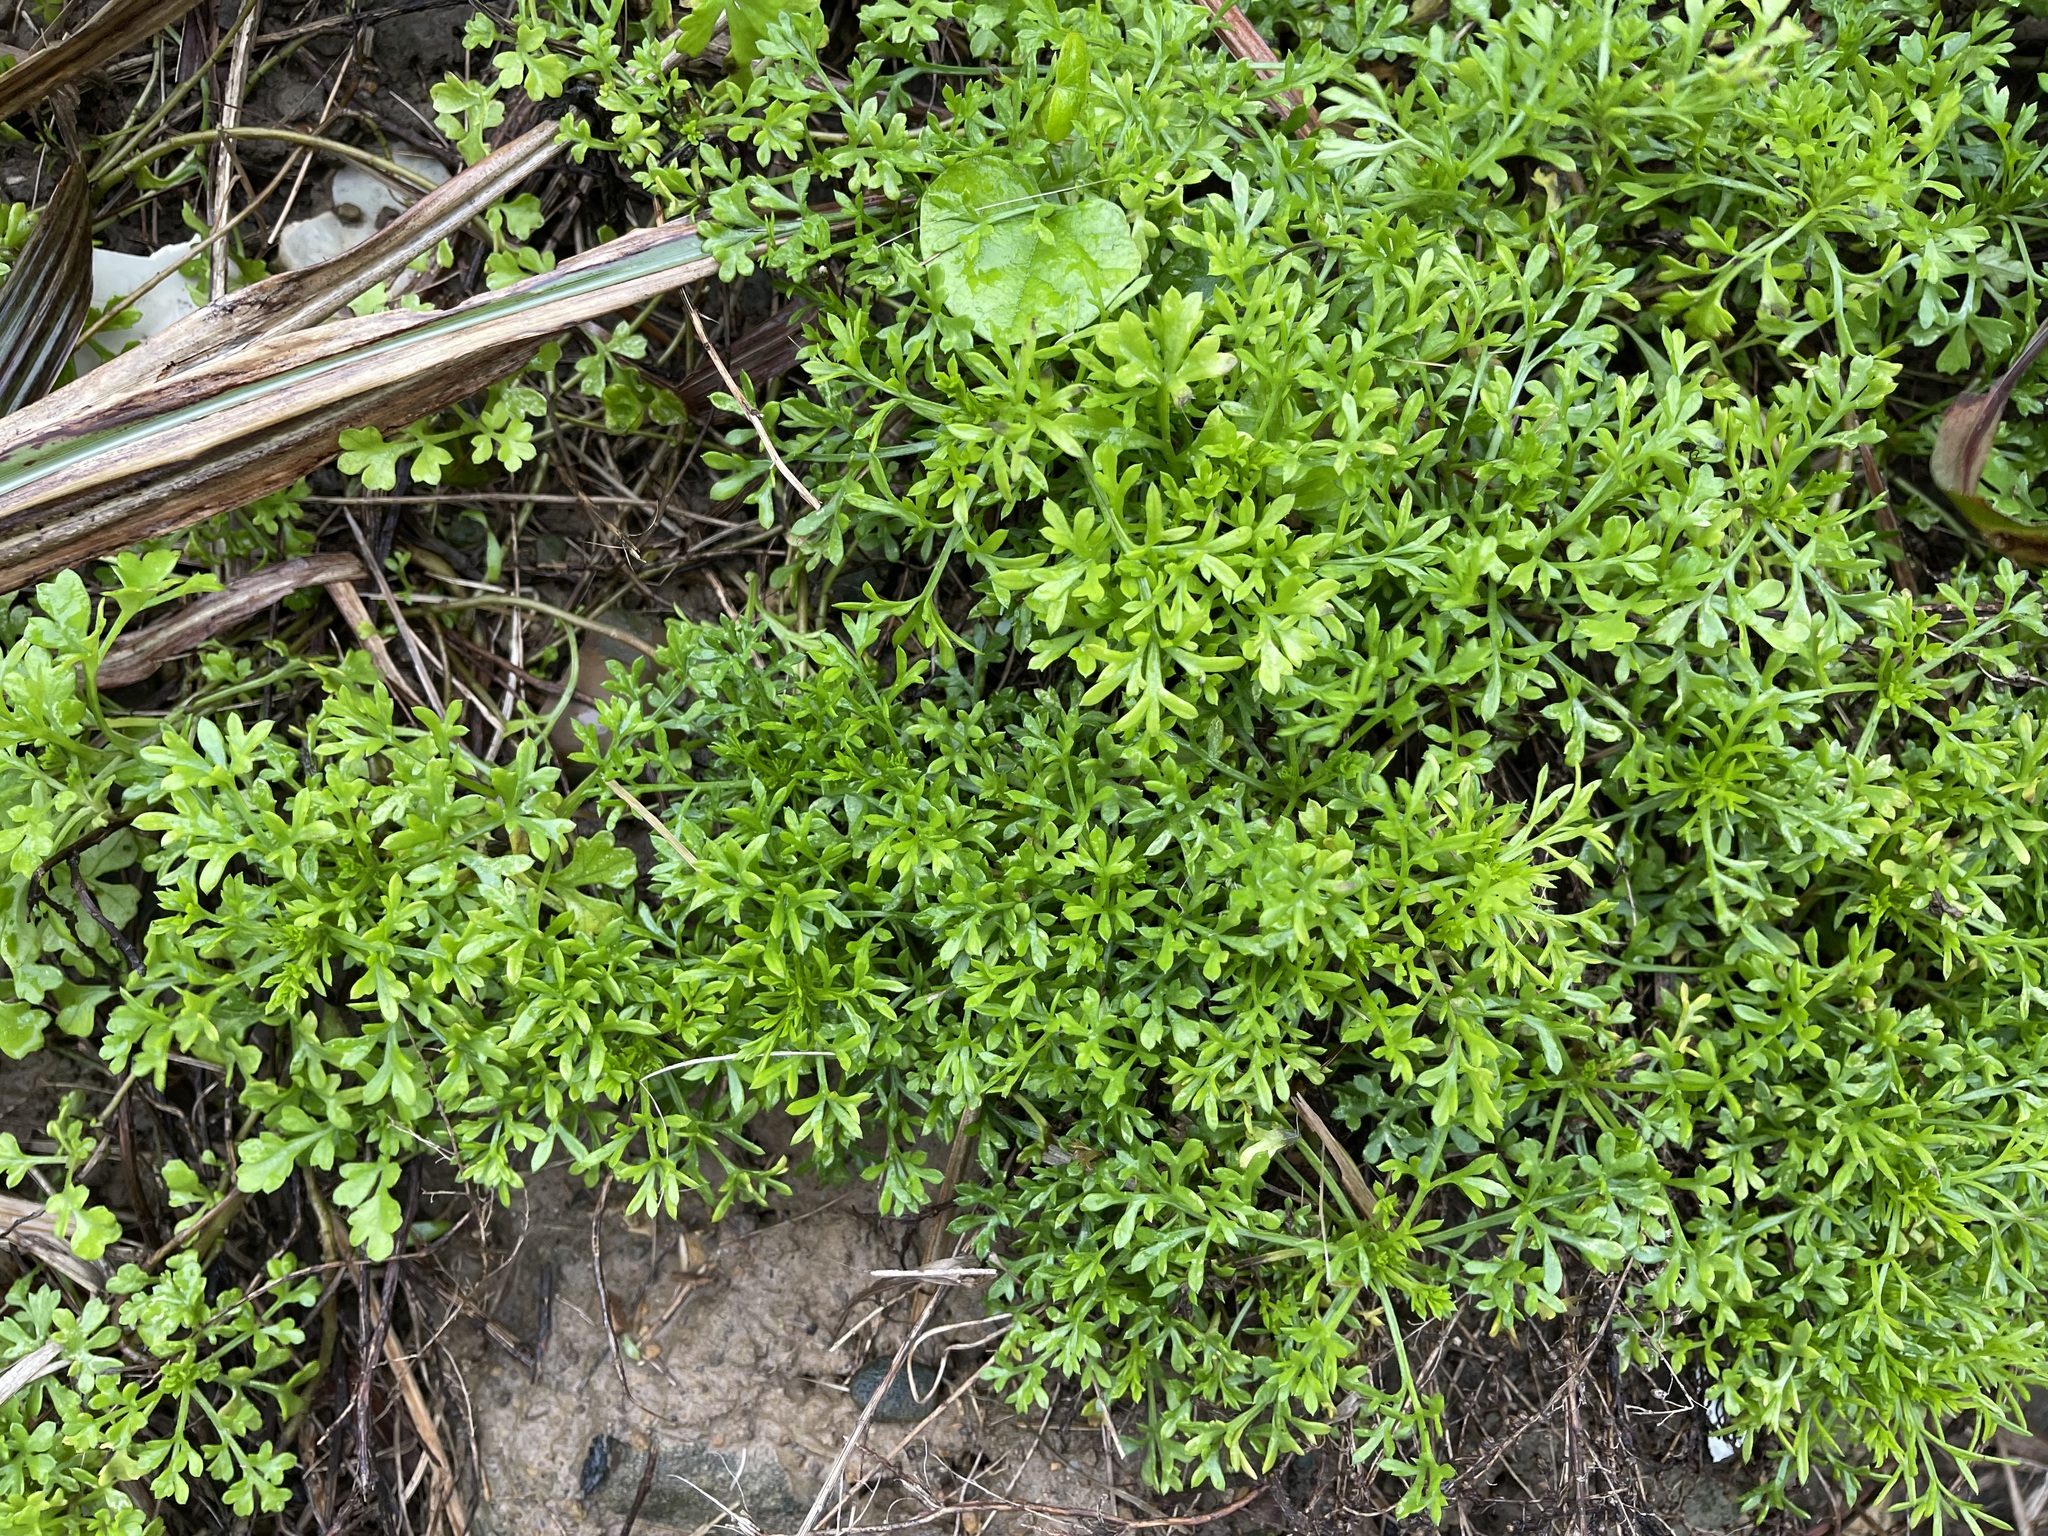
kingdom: Plantae
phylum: Tracheophyta
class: Magnoliopsida
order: Asterales
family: Asteraceae
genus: Artemisia
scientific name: Artemisia capillaris
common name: Yin-chen wormwood
